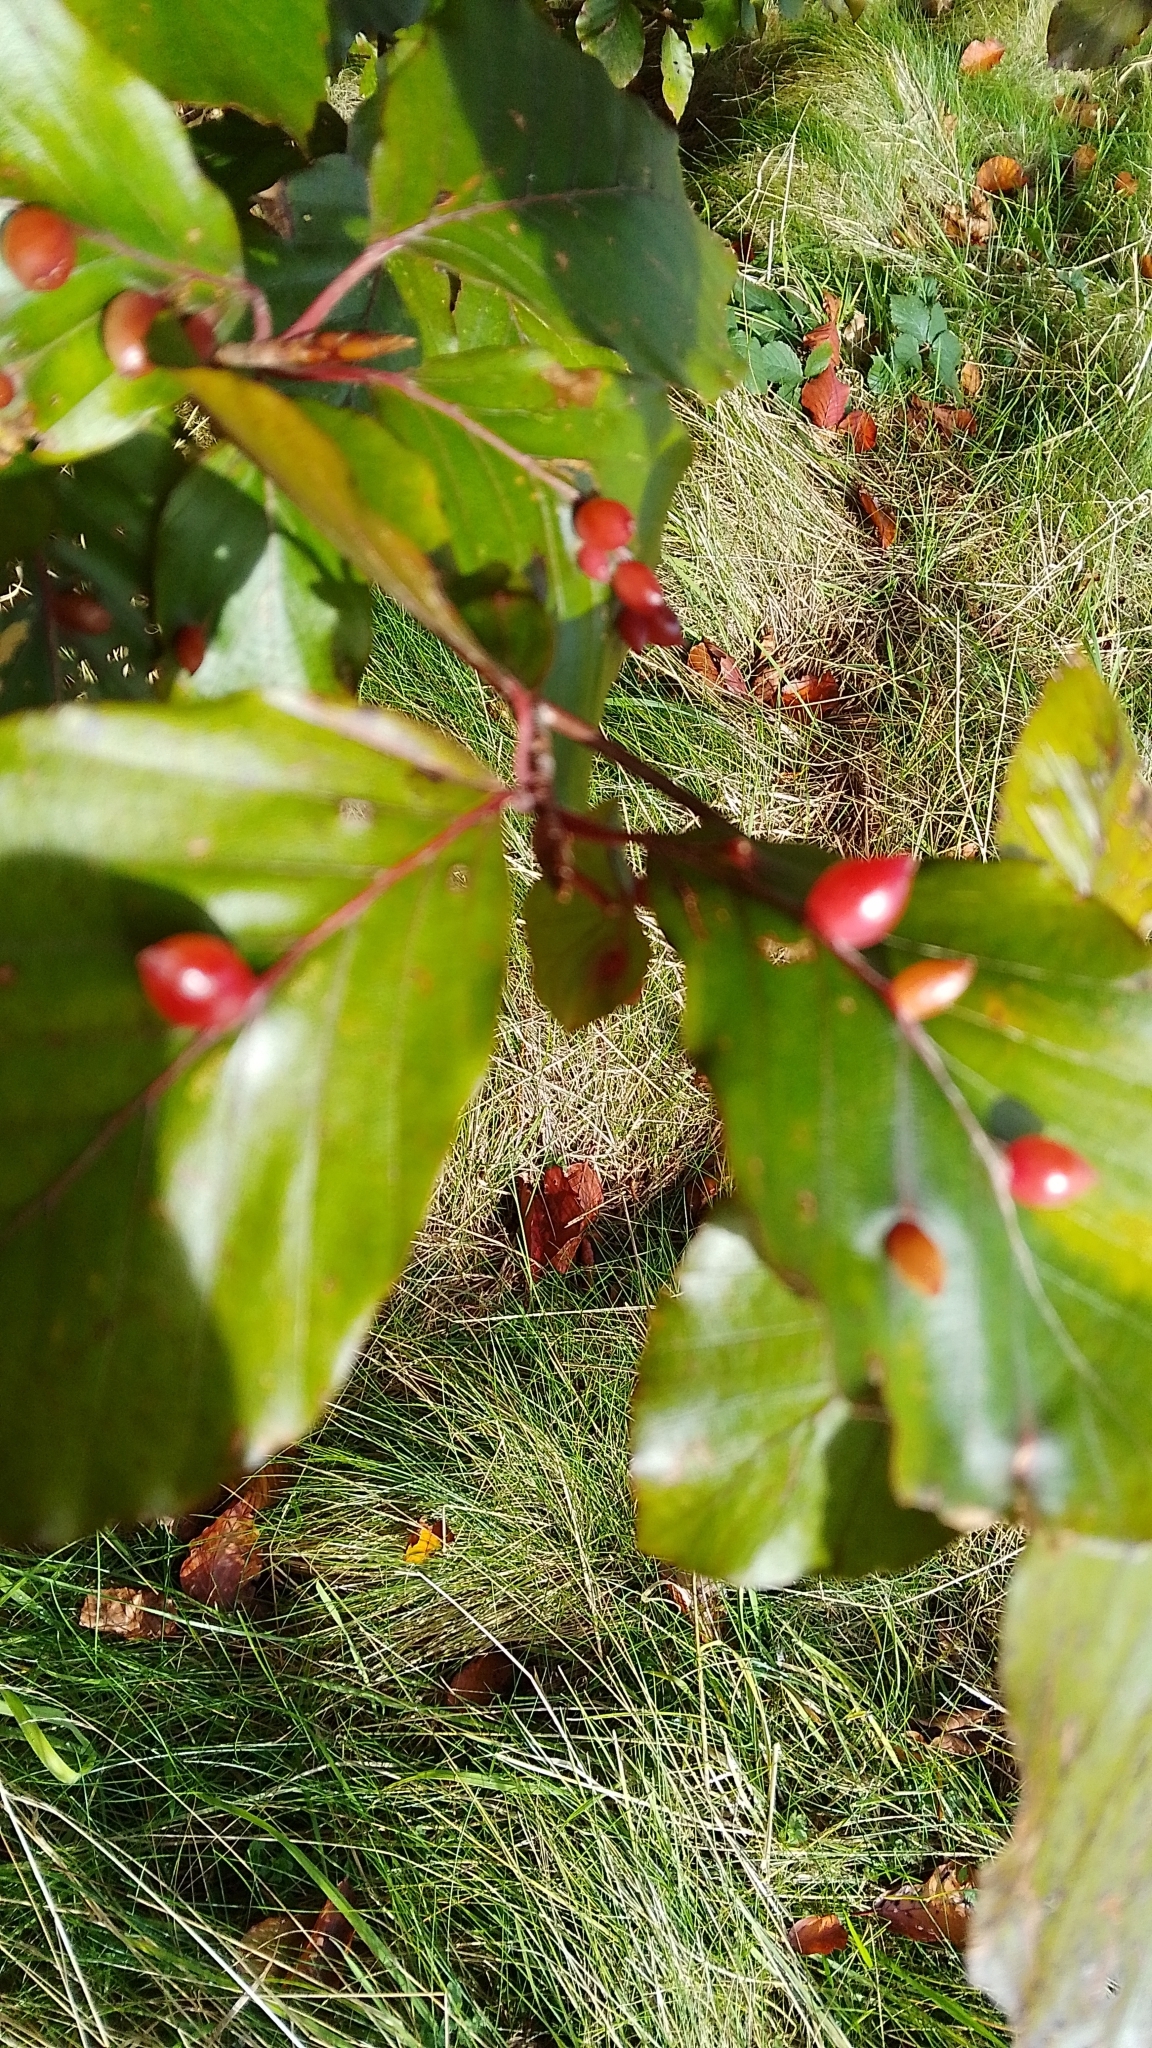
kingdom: Animalia
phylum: Arthropoda
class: Insecta
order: Diptera
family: Cecidomyiidae
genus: Mikiola
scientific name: Mikiola fagi
